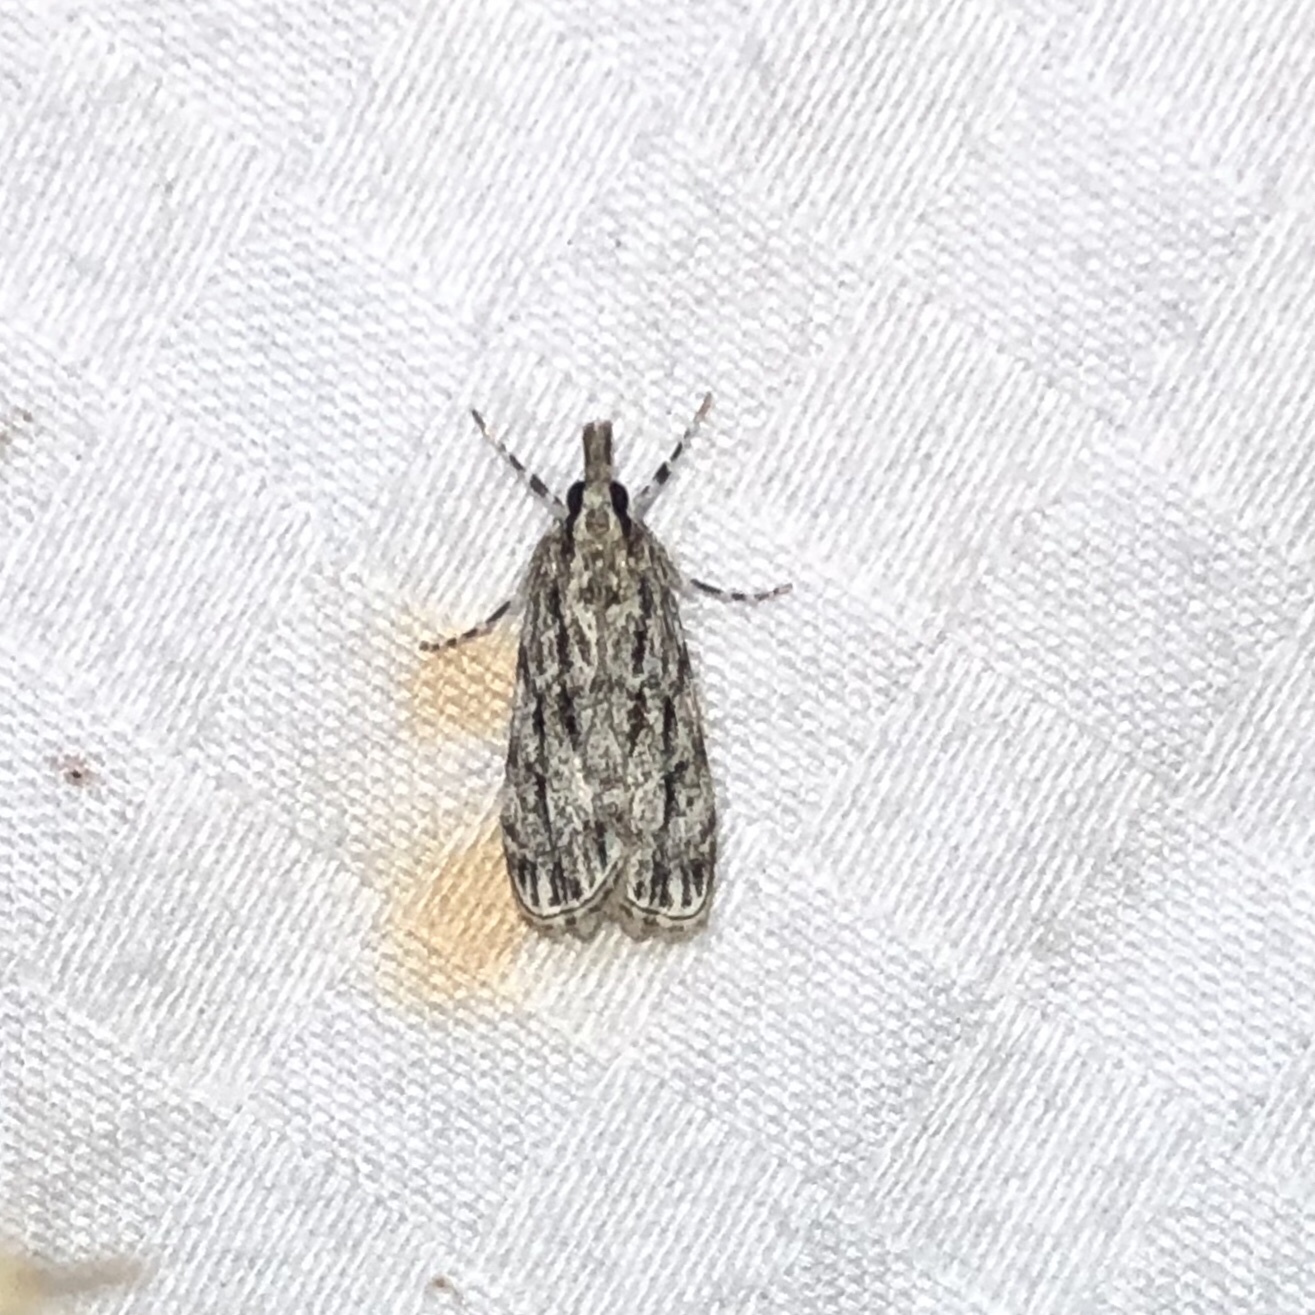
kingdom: Animalia
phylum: Arthropoda
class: Insecta
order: Lepidoptera
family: Crambidae
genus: Eudonia
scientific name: Eudonia strigalis
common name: Striped eudonia moth
